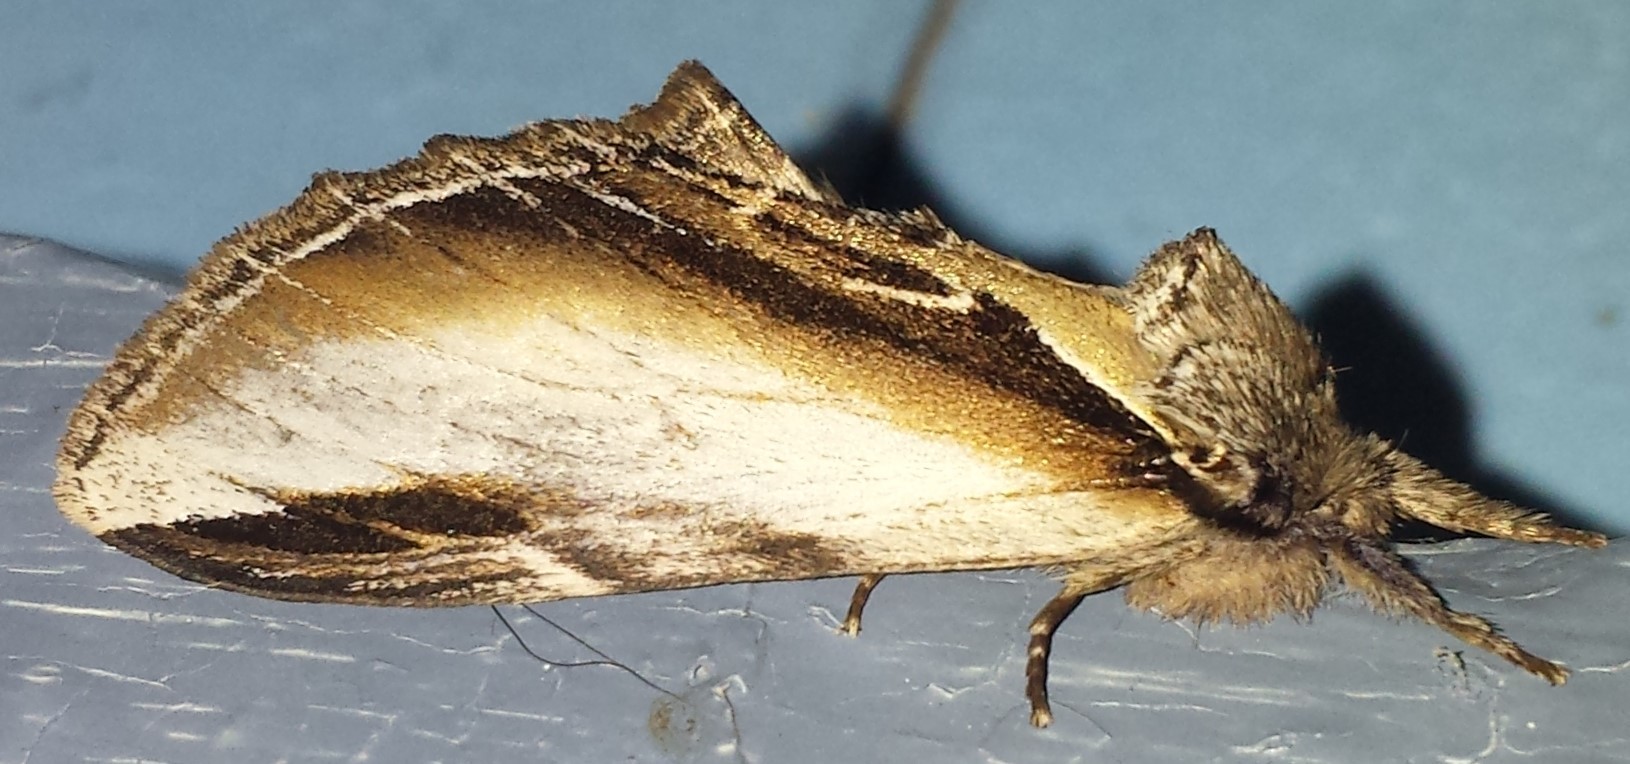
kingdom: Animalia
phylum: Arthropoda
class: Insecta
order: Lepidoptera
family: Notodontidae
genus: Pheosia
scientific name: Pheosia rimosa
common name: Black-rimmed prominent
